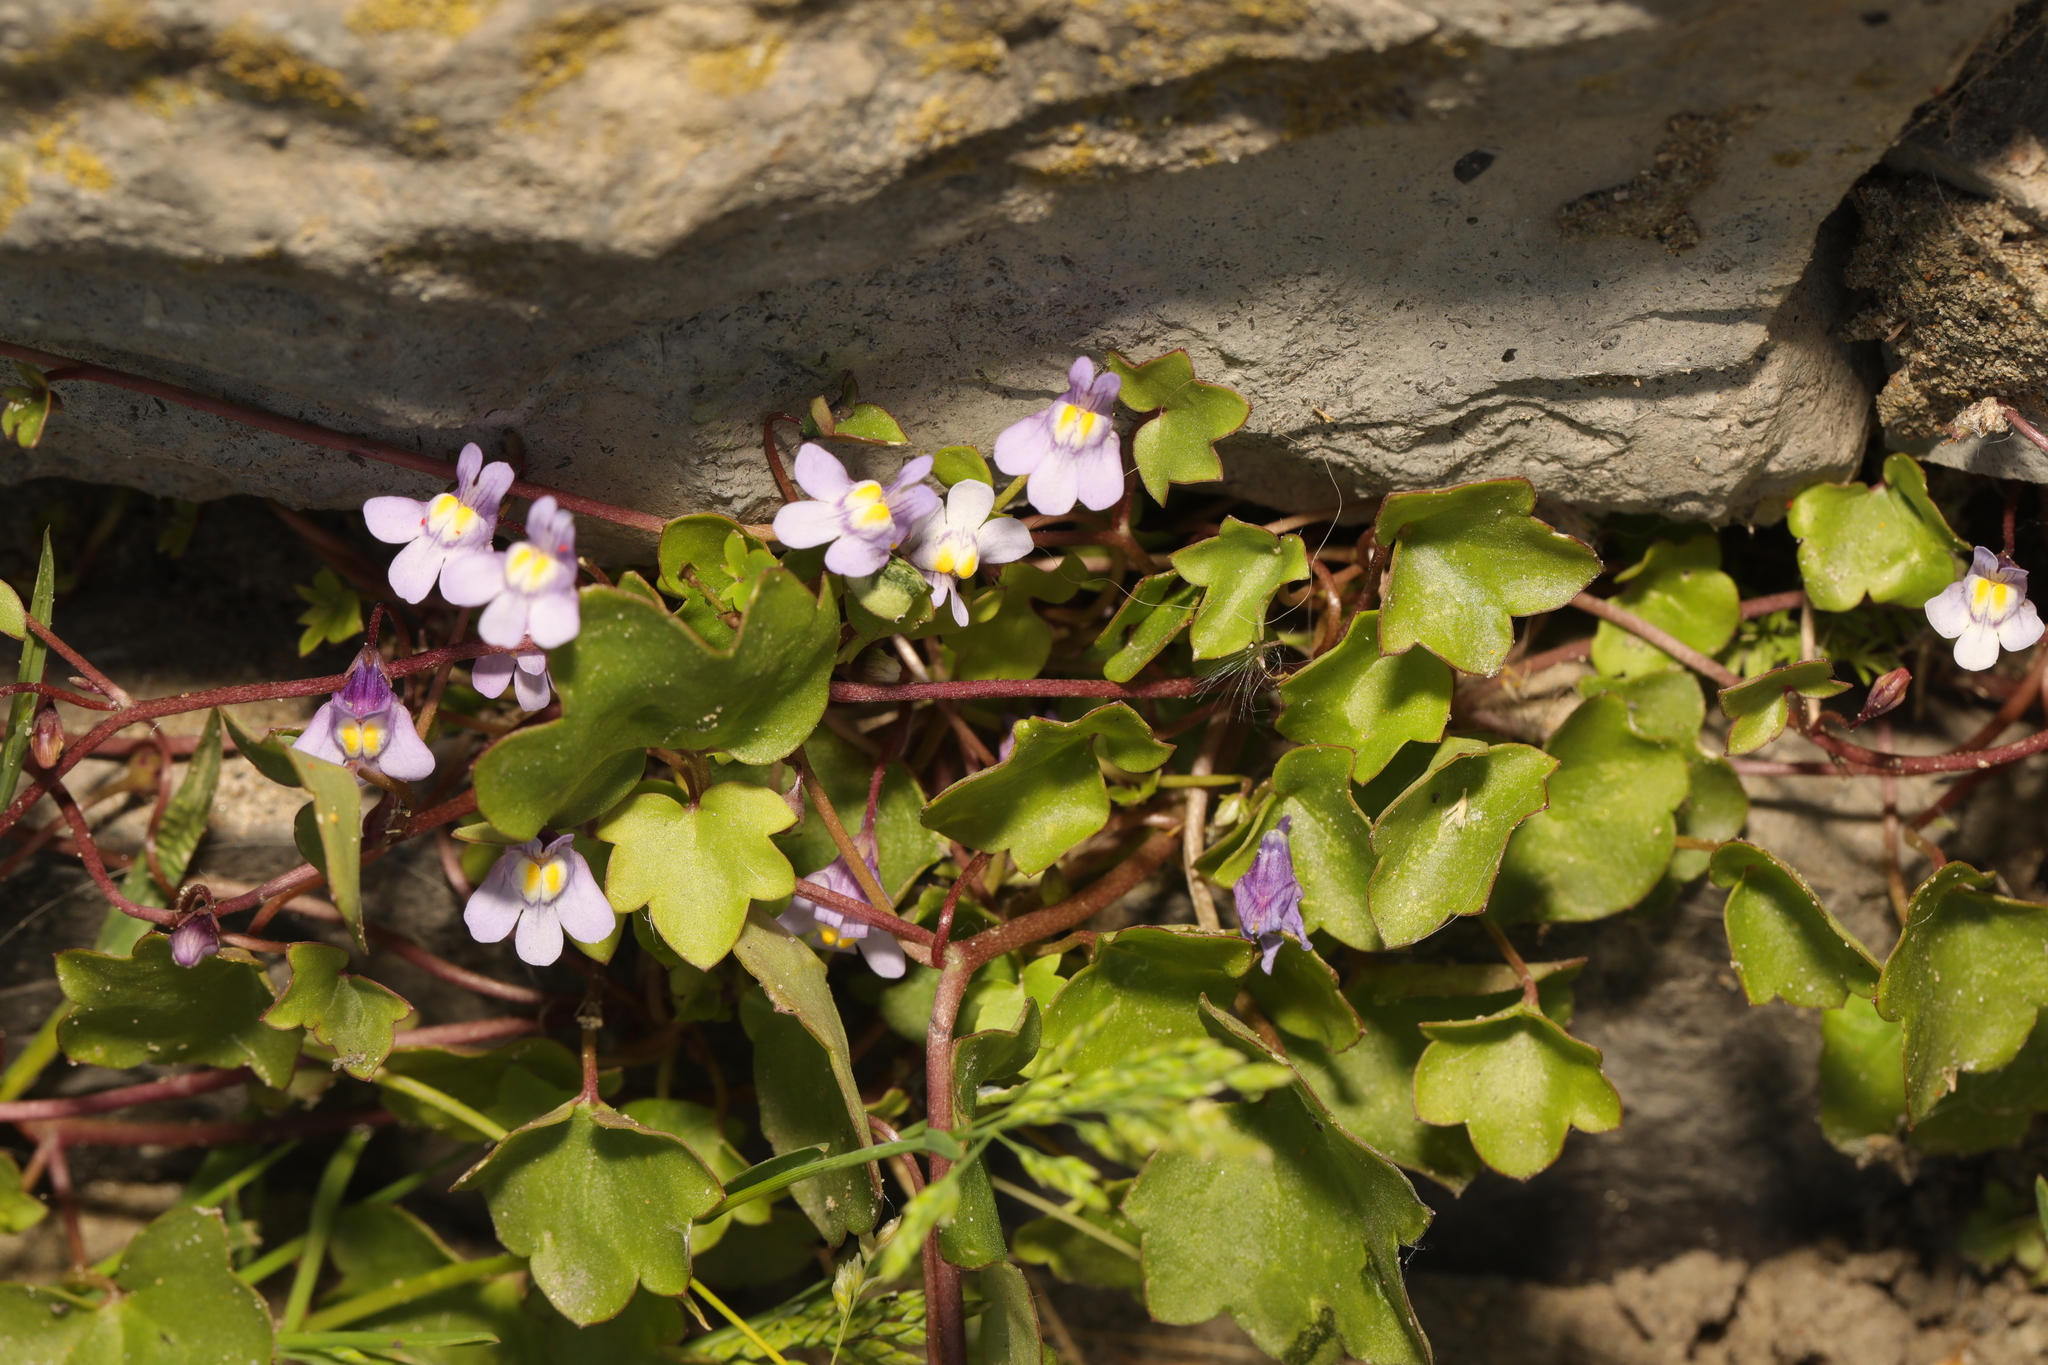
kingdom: Plantae
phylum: Tracheophyta
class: Magnoliopsida
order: Lamiales
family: Plantaginaceae
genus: Cymbalaria
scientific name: Cymbalaria muralis
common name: Ivy-leaved toadflax
